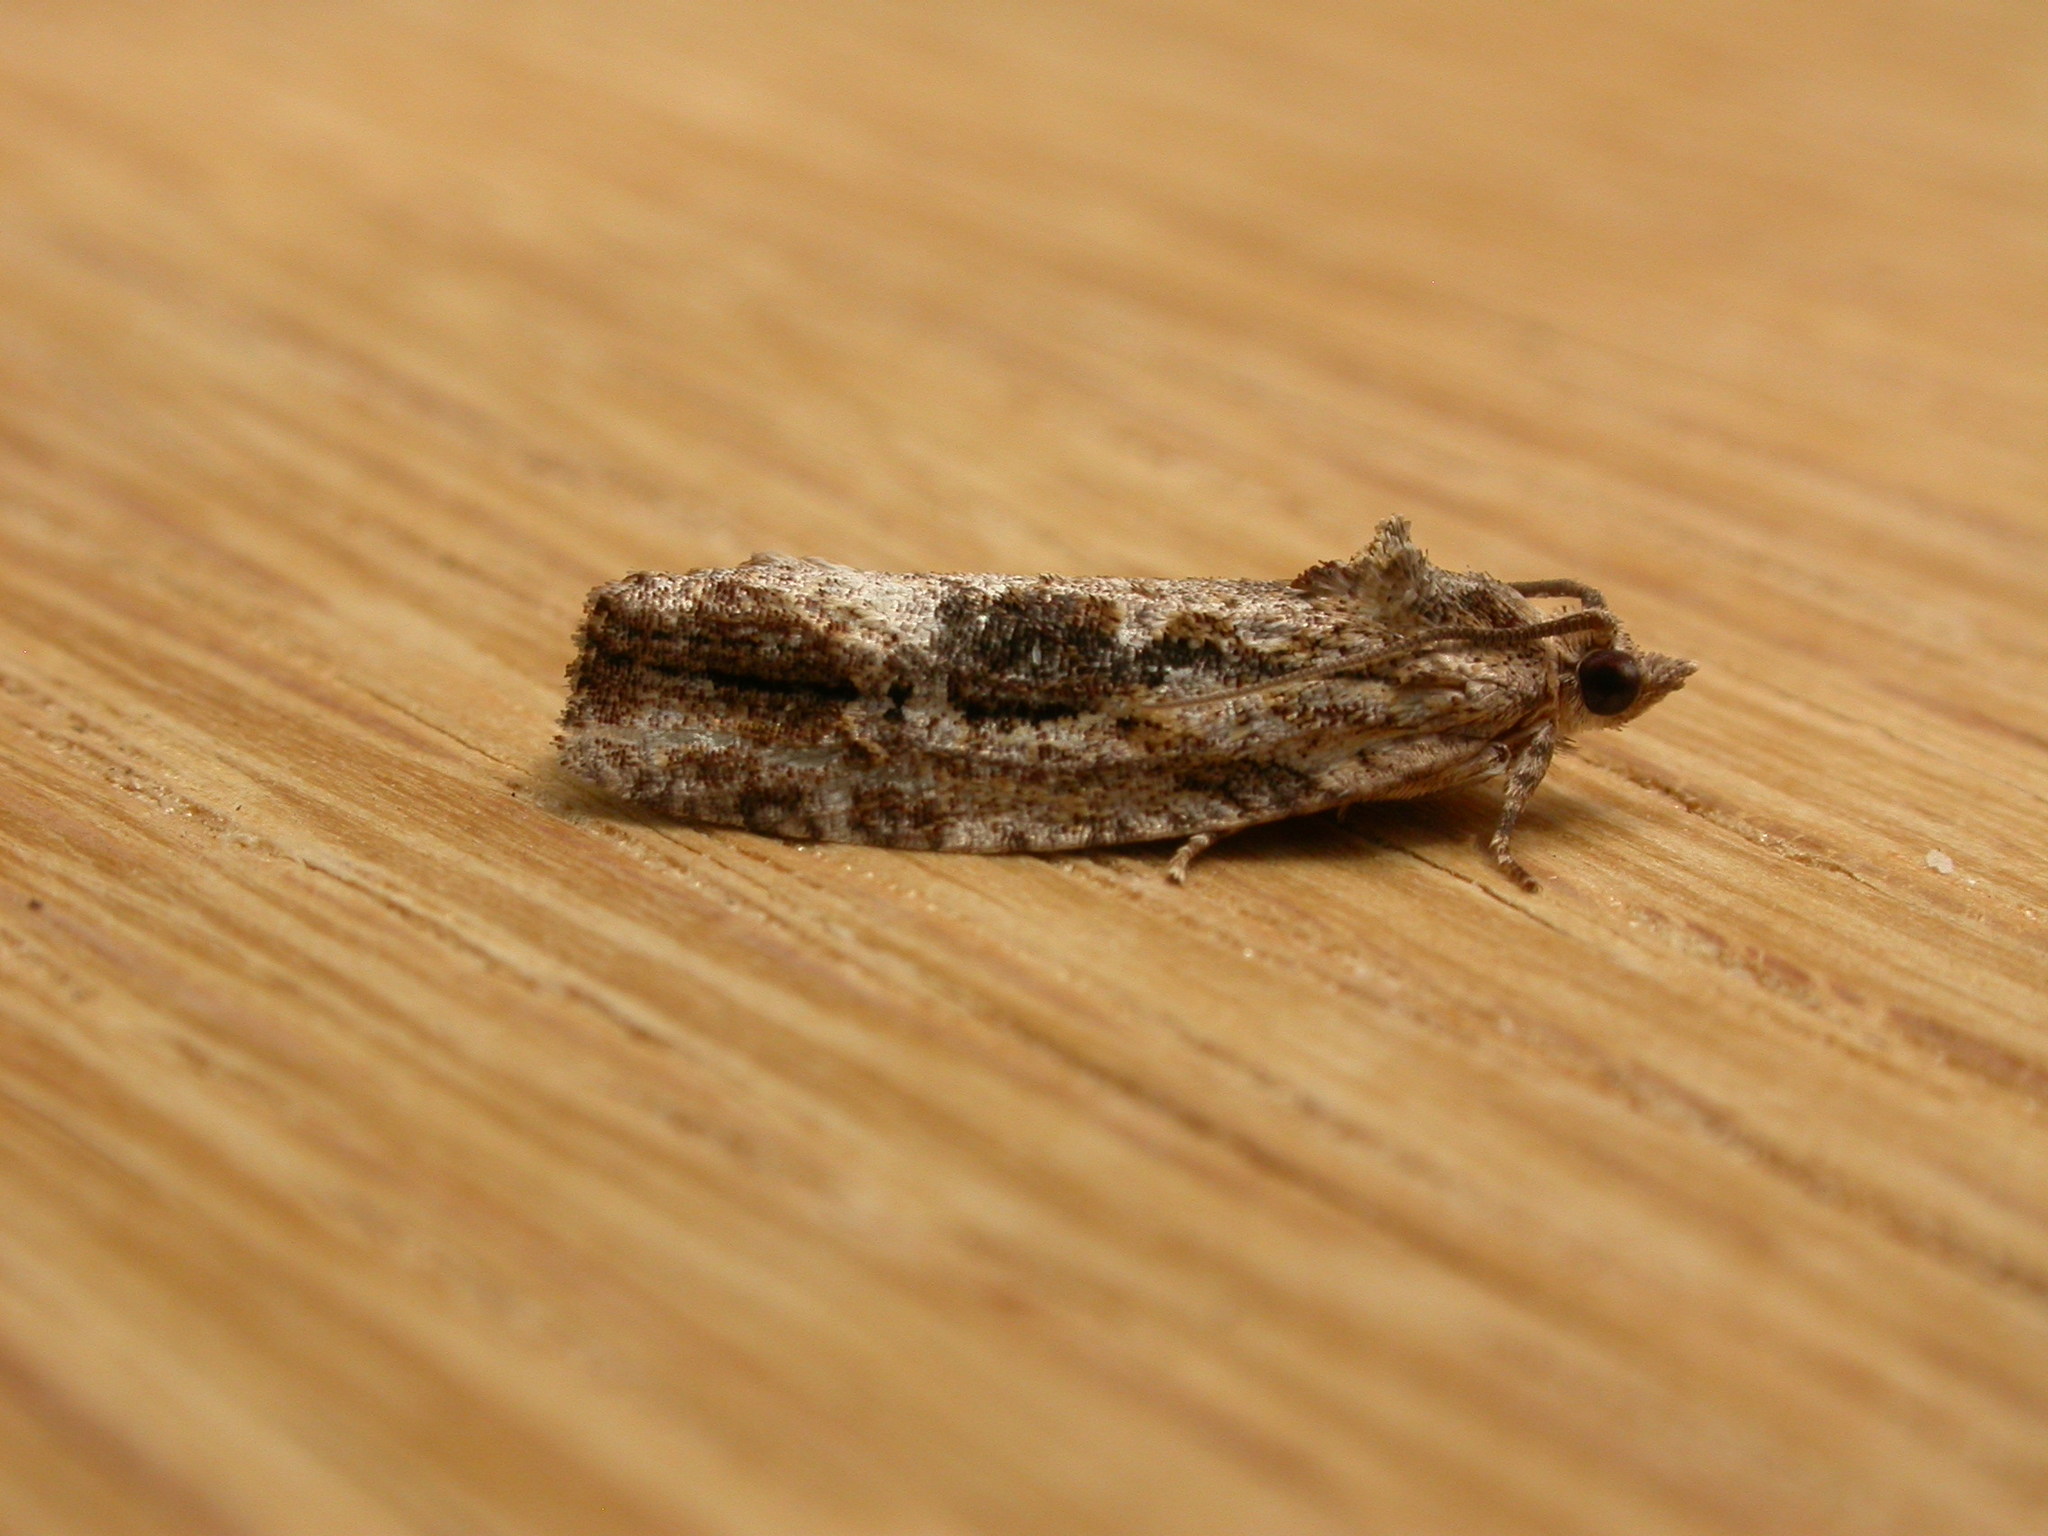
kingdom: Animalia
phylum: Arthropoda
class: Insecta
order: Lepidoptera
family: Tortricidae
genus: Thrincophora
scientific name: Thrincophora lignigerana
